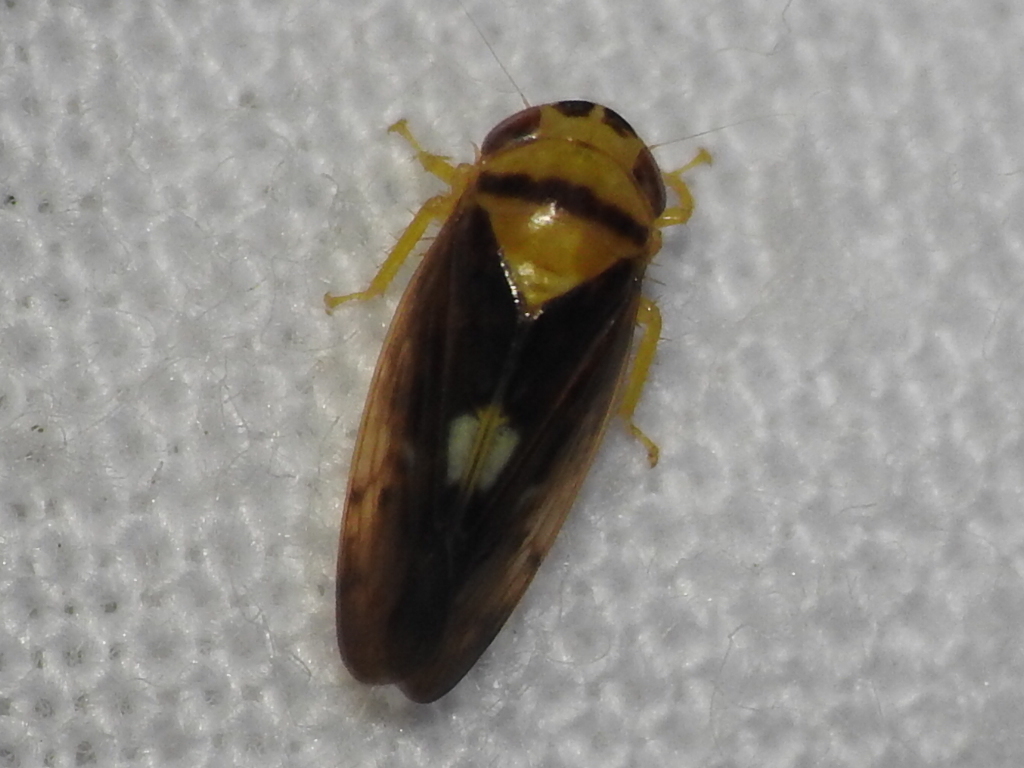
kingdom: Animalia
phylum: Arthropoda
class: Insecta
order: Hemiptera
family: Cicadellidae
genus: Eutettix
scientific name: Eutettix pictus
